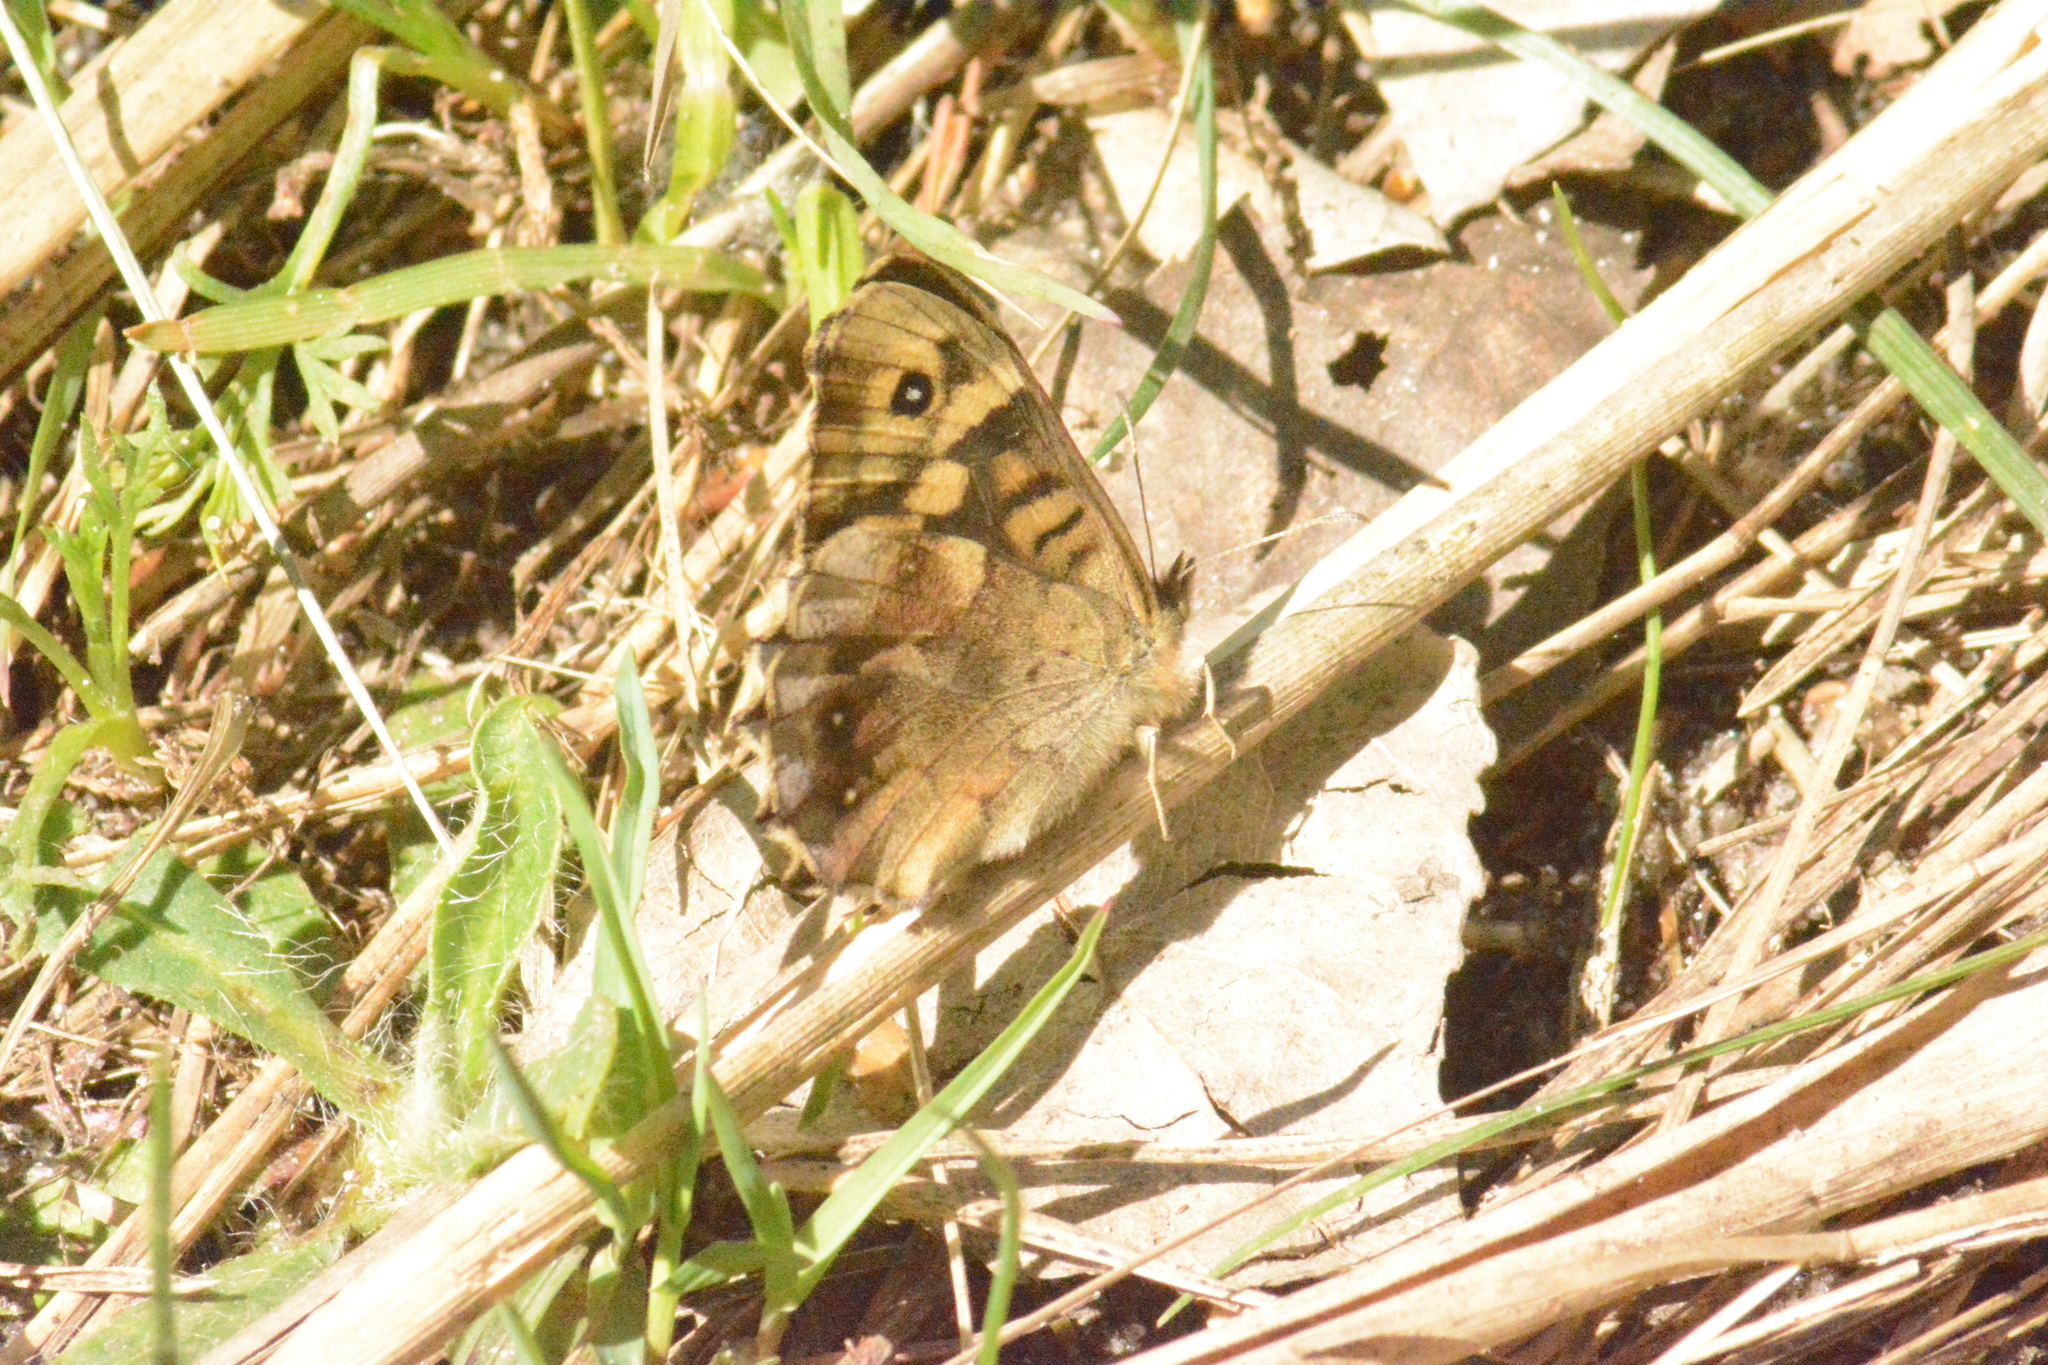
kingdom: Animalia
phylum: Arthropoda
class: Insecta
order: Lepidoptera
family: Nymphalidae
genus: Pararge
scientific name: Pararge aegeria
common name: Speckled wood
